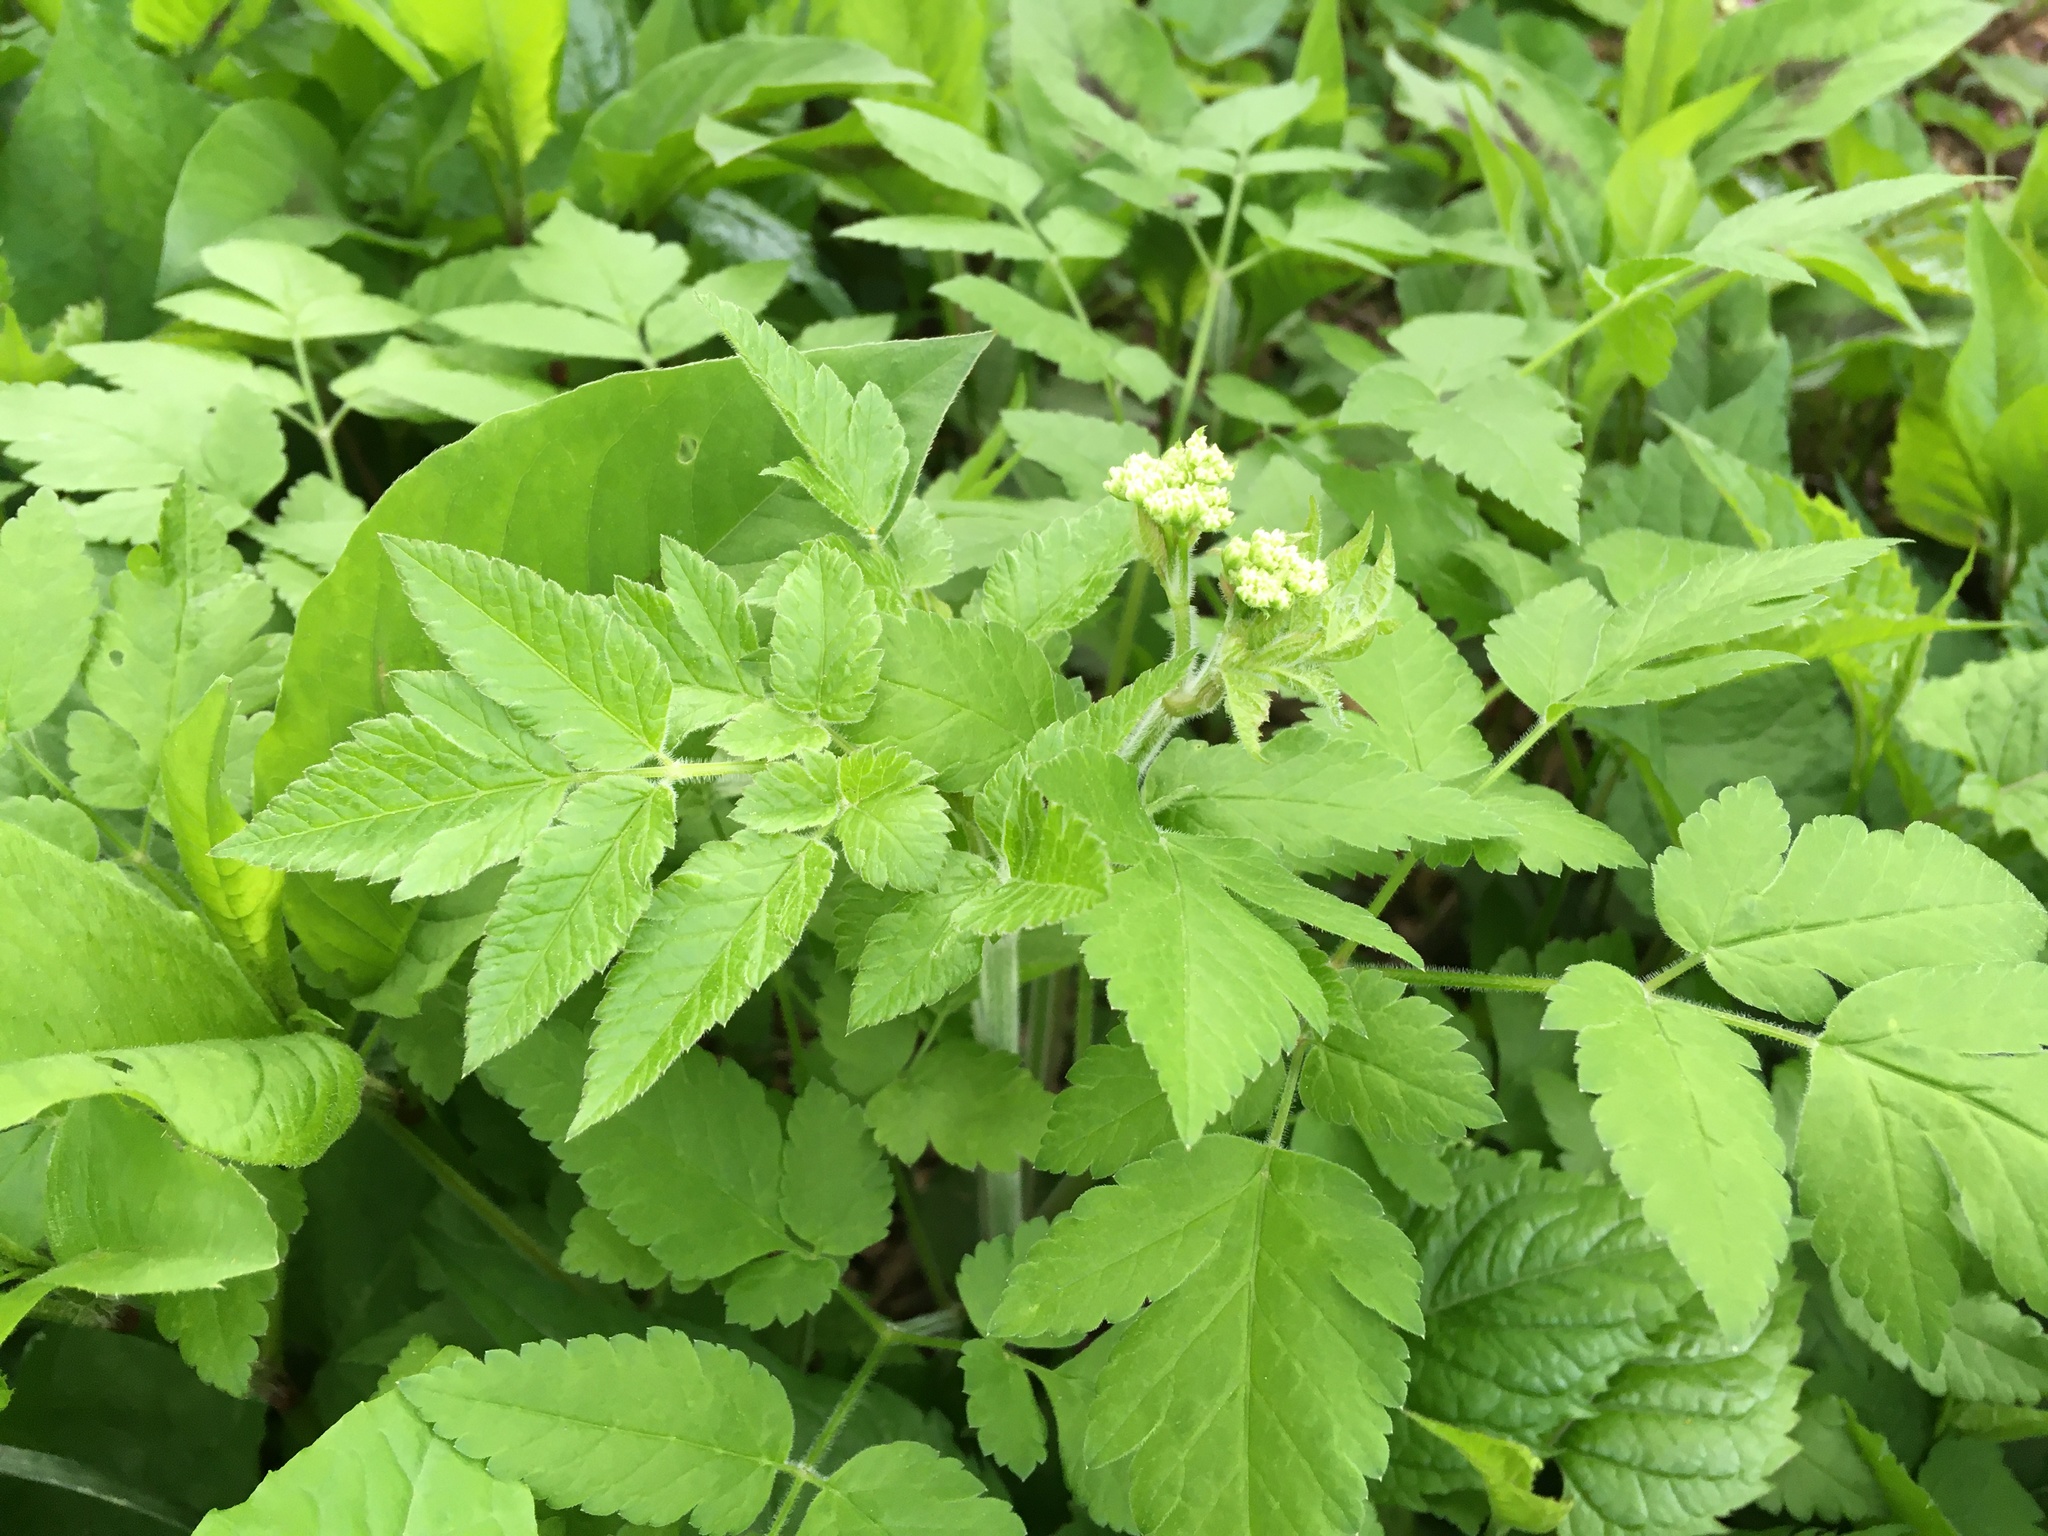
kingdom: Plantae
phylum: Tracheophyta
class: Magnoliopsida
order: Apiales
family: Apiaceae
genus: Osmorhiza
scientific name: Osmorhiza claytonii
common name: Hairy sweet cicely
